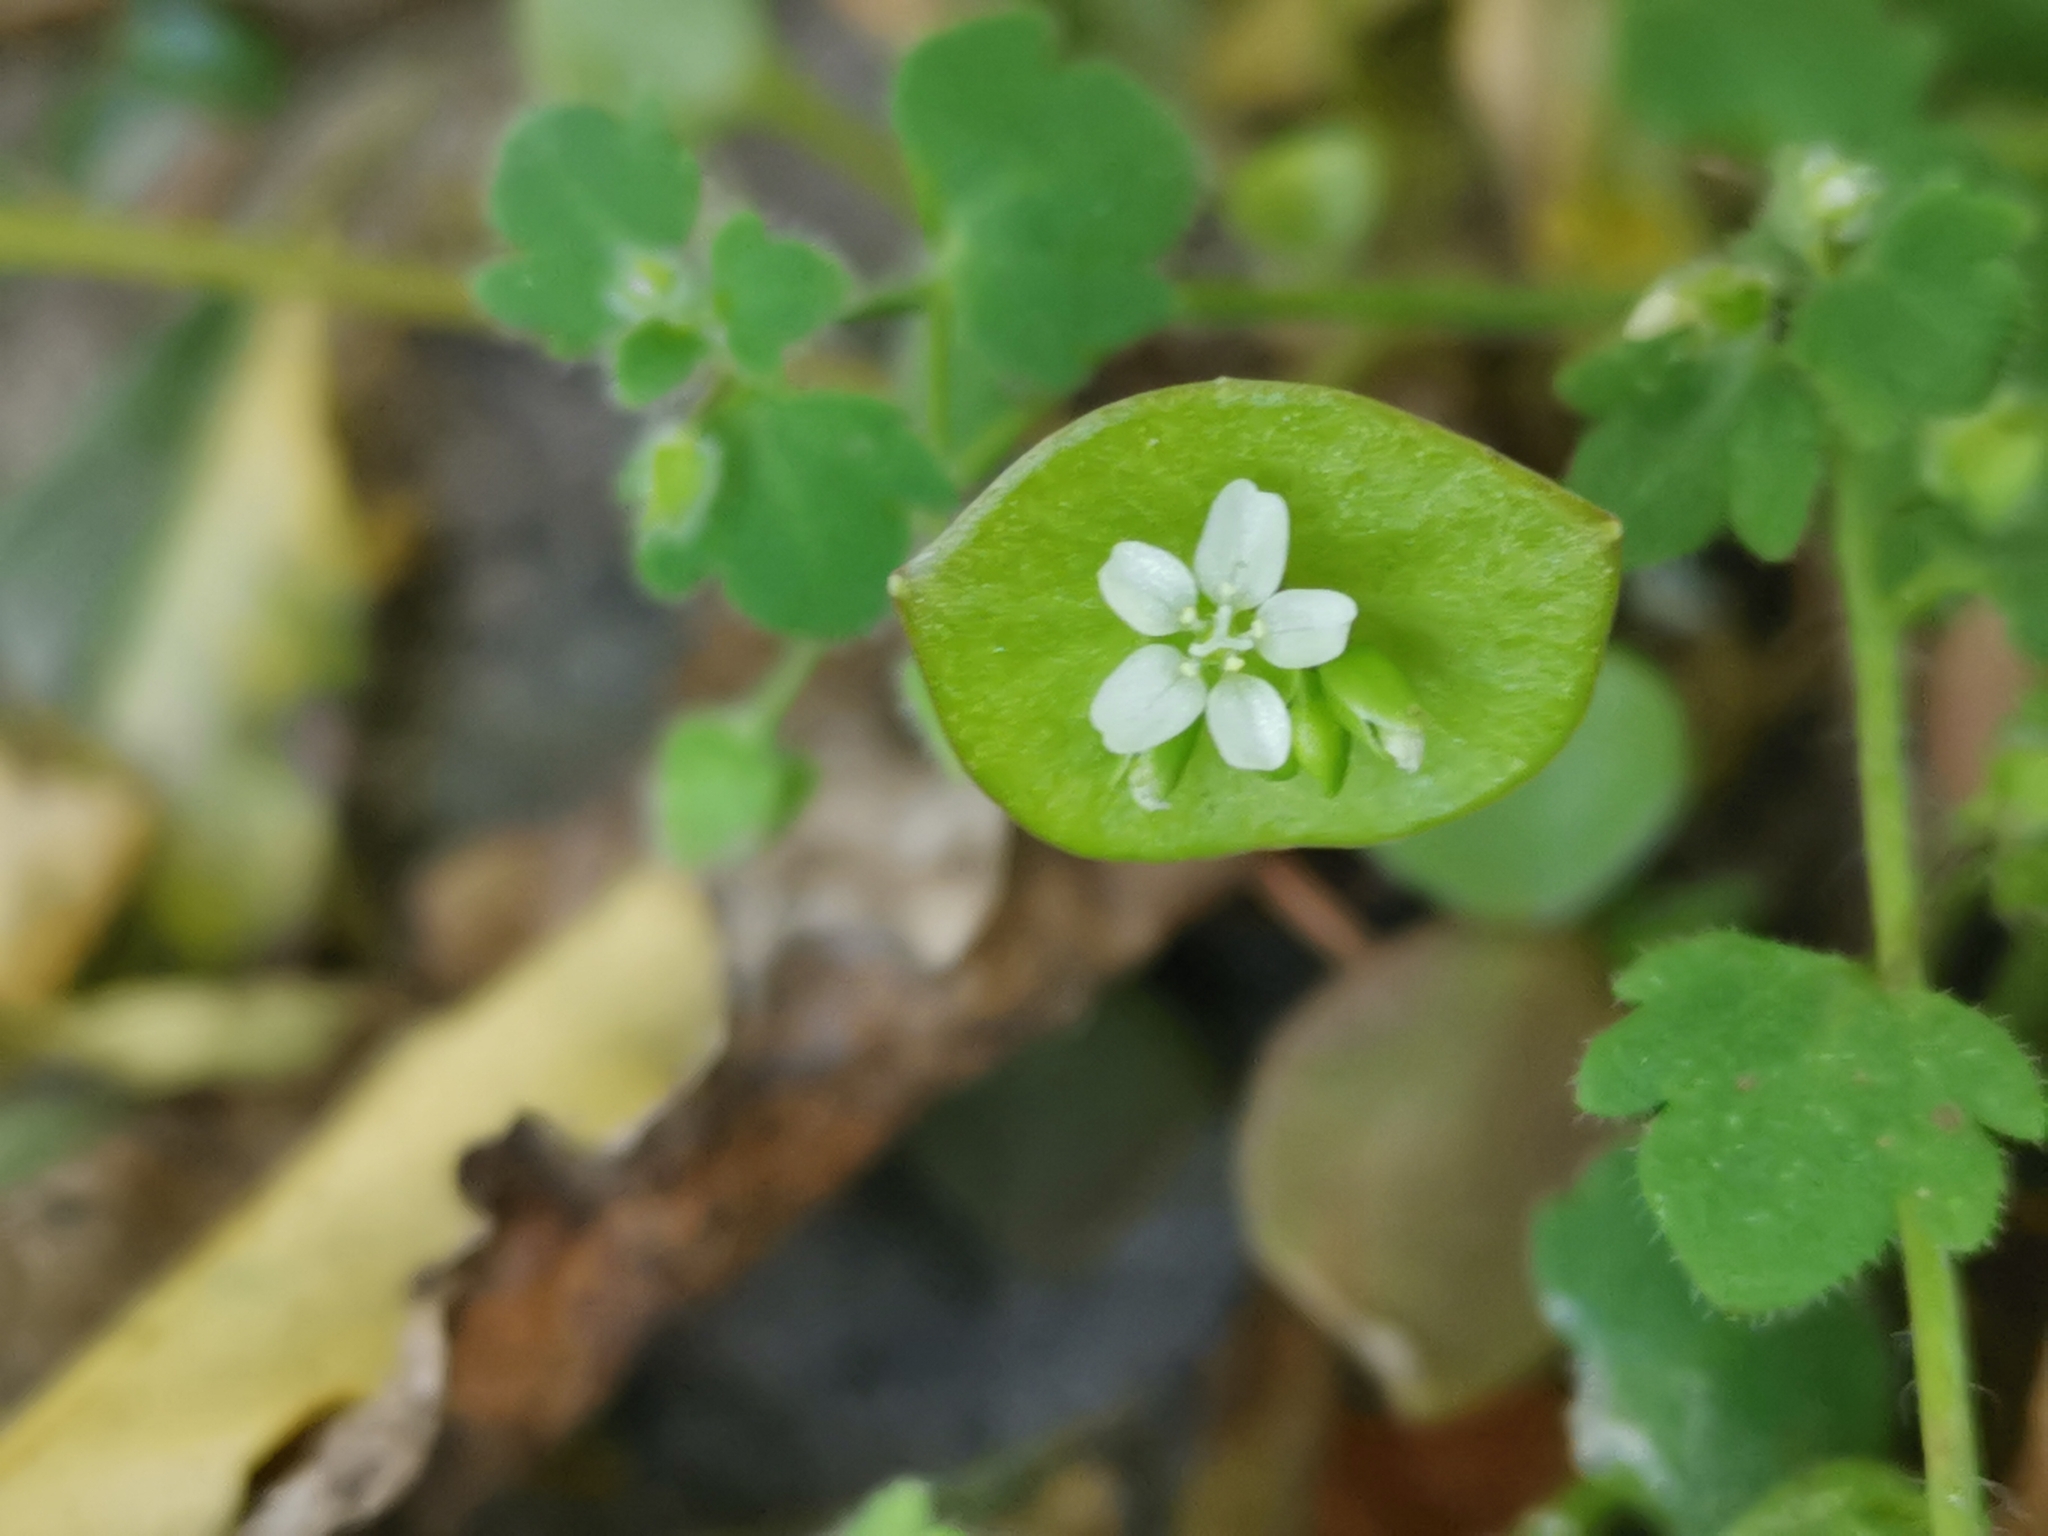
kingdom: Plantae
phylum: Tracheophyta
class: Magnoliopsida
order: Caryophyllales
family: Montiaceae
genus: Claytonia
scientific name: Claytonia perfoliata
